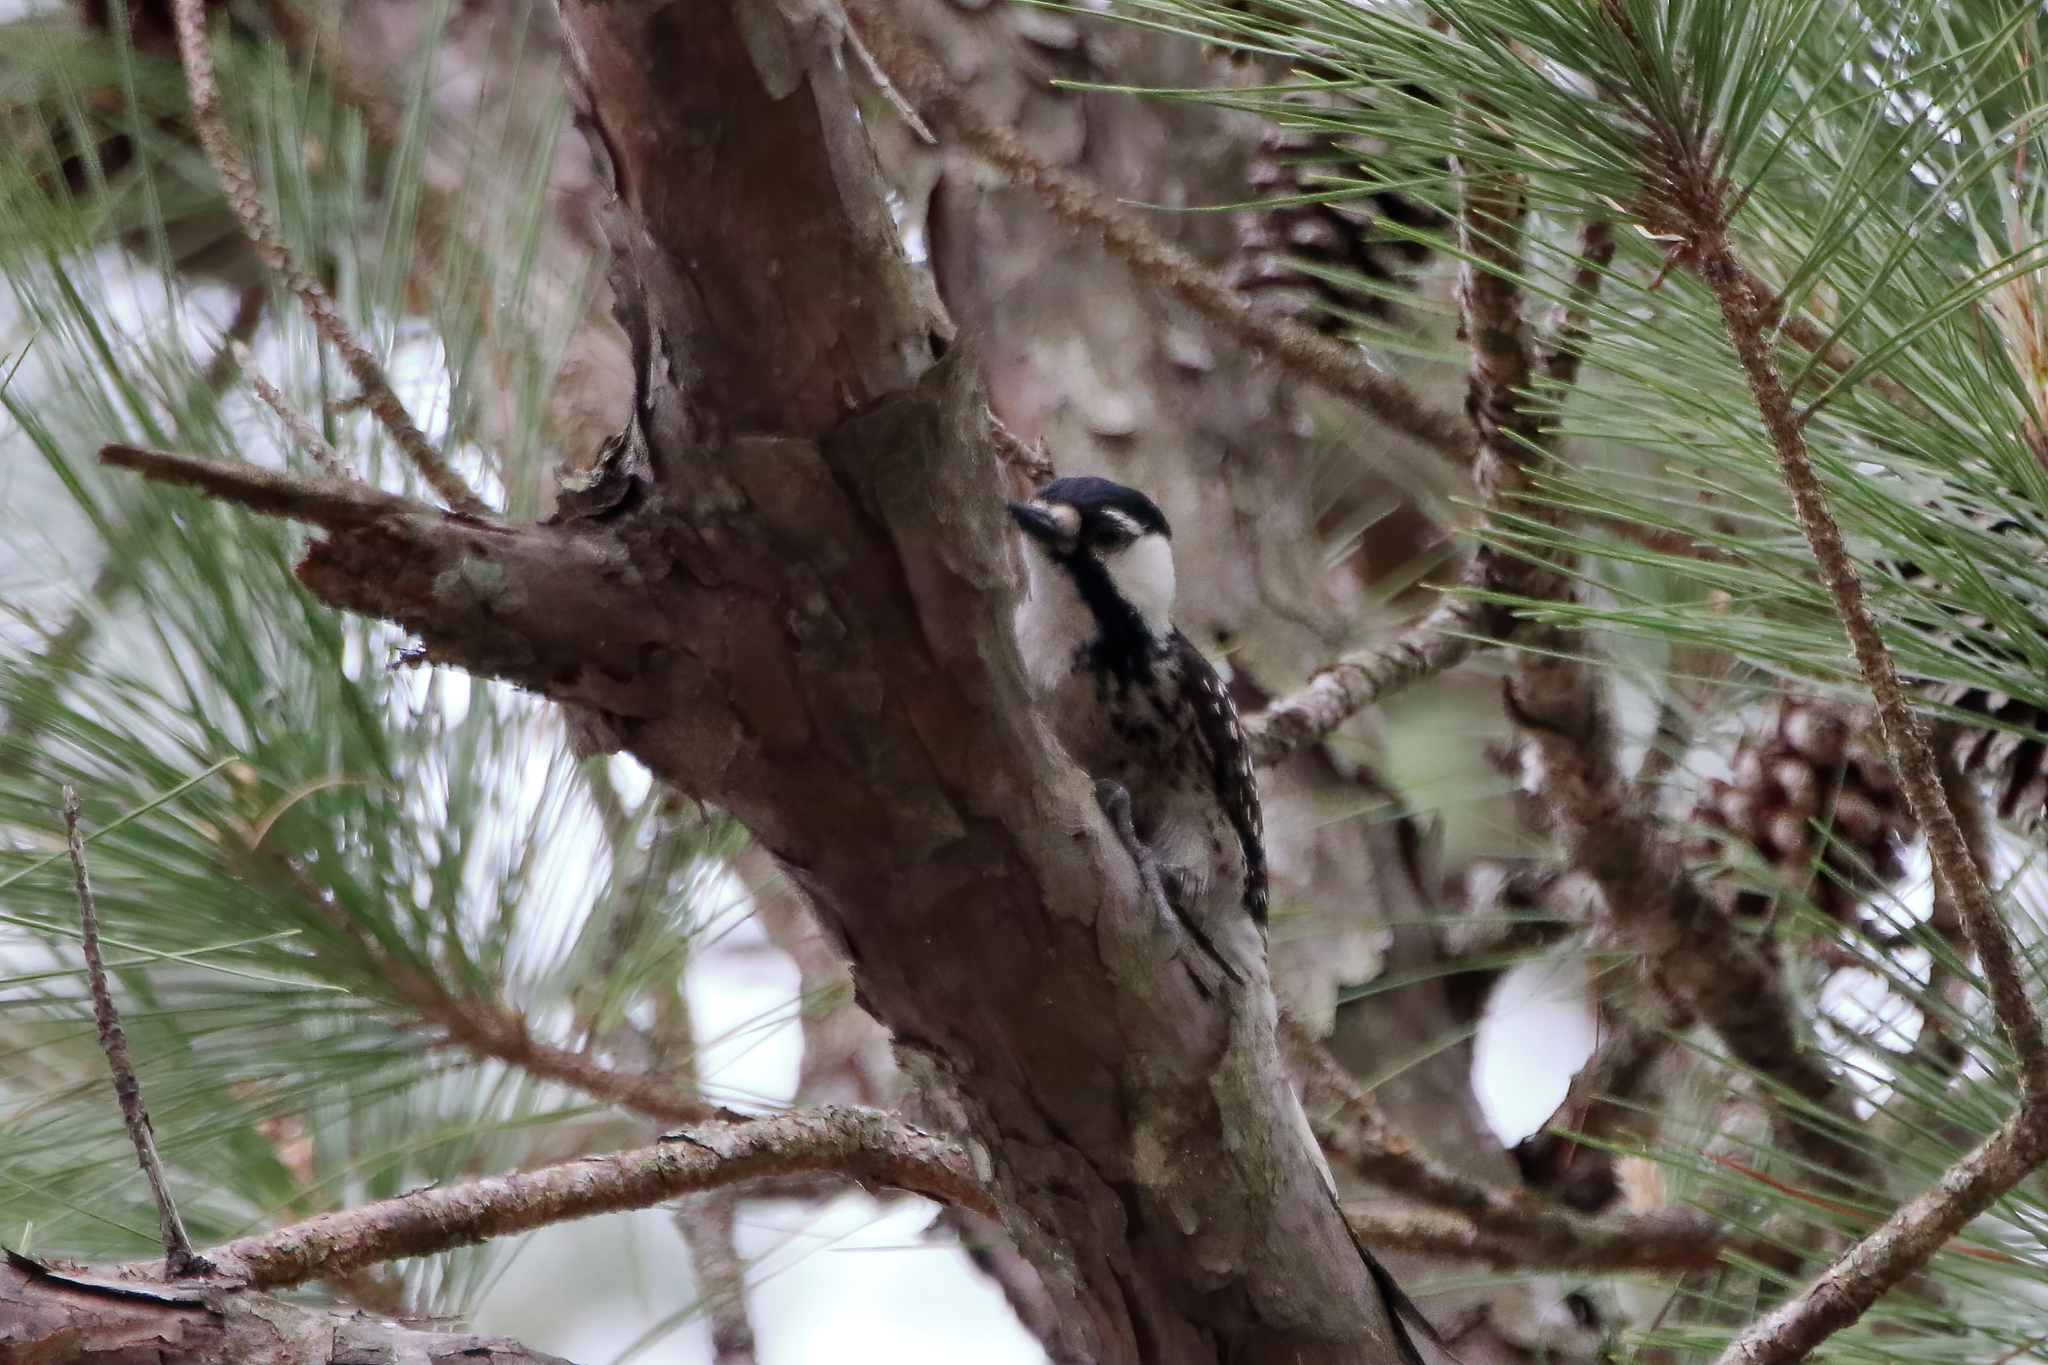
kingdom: Animalia
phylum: Chordata
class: Aves
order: Piciformes
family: Picidae
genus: Leuconotopicus
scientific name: Leuconotopicus borealis
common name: Red-cockaded woodpecker
